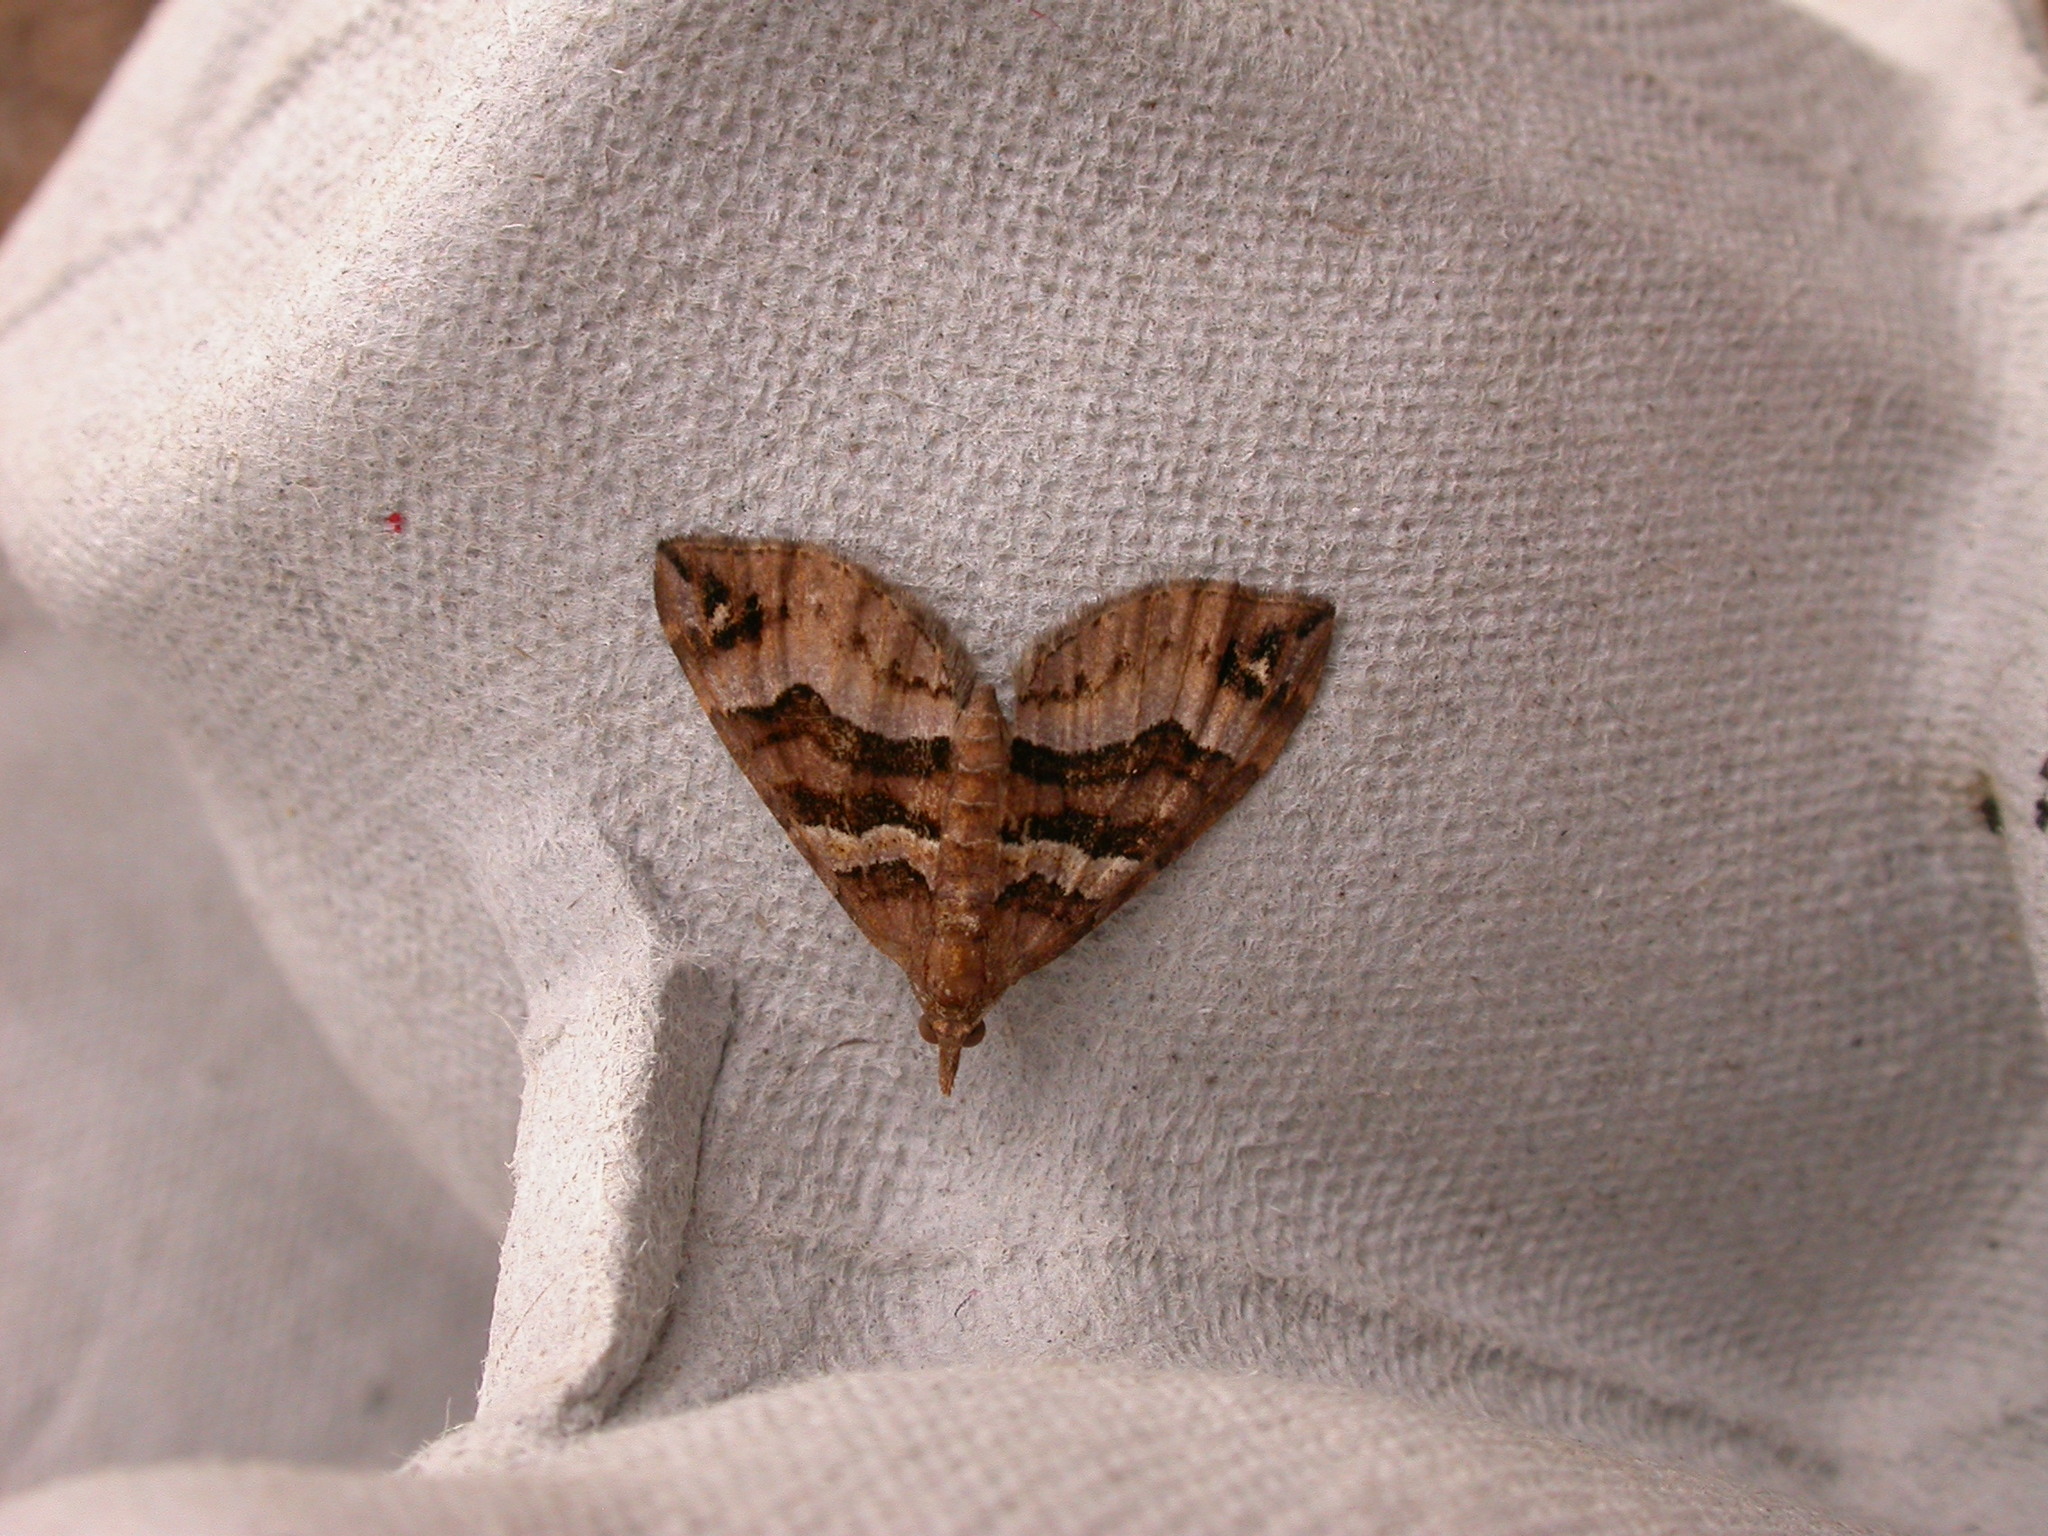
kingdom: Animalia
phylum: Arthropoda
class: Insecta
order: Lepidoptera
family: Geometridae
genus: Chaetolopha
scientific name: Chaetolopha emporias
